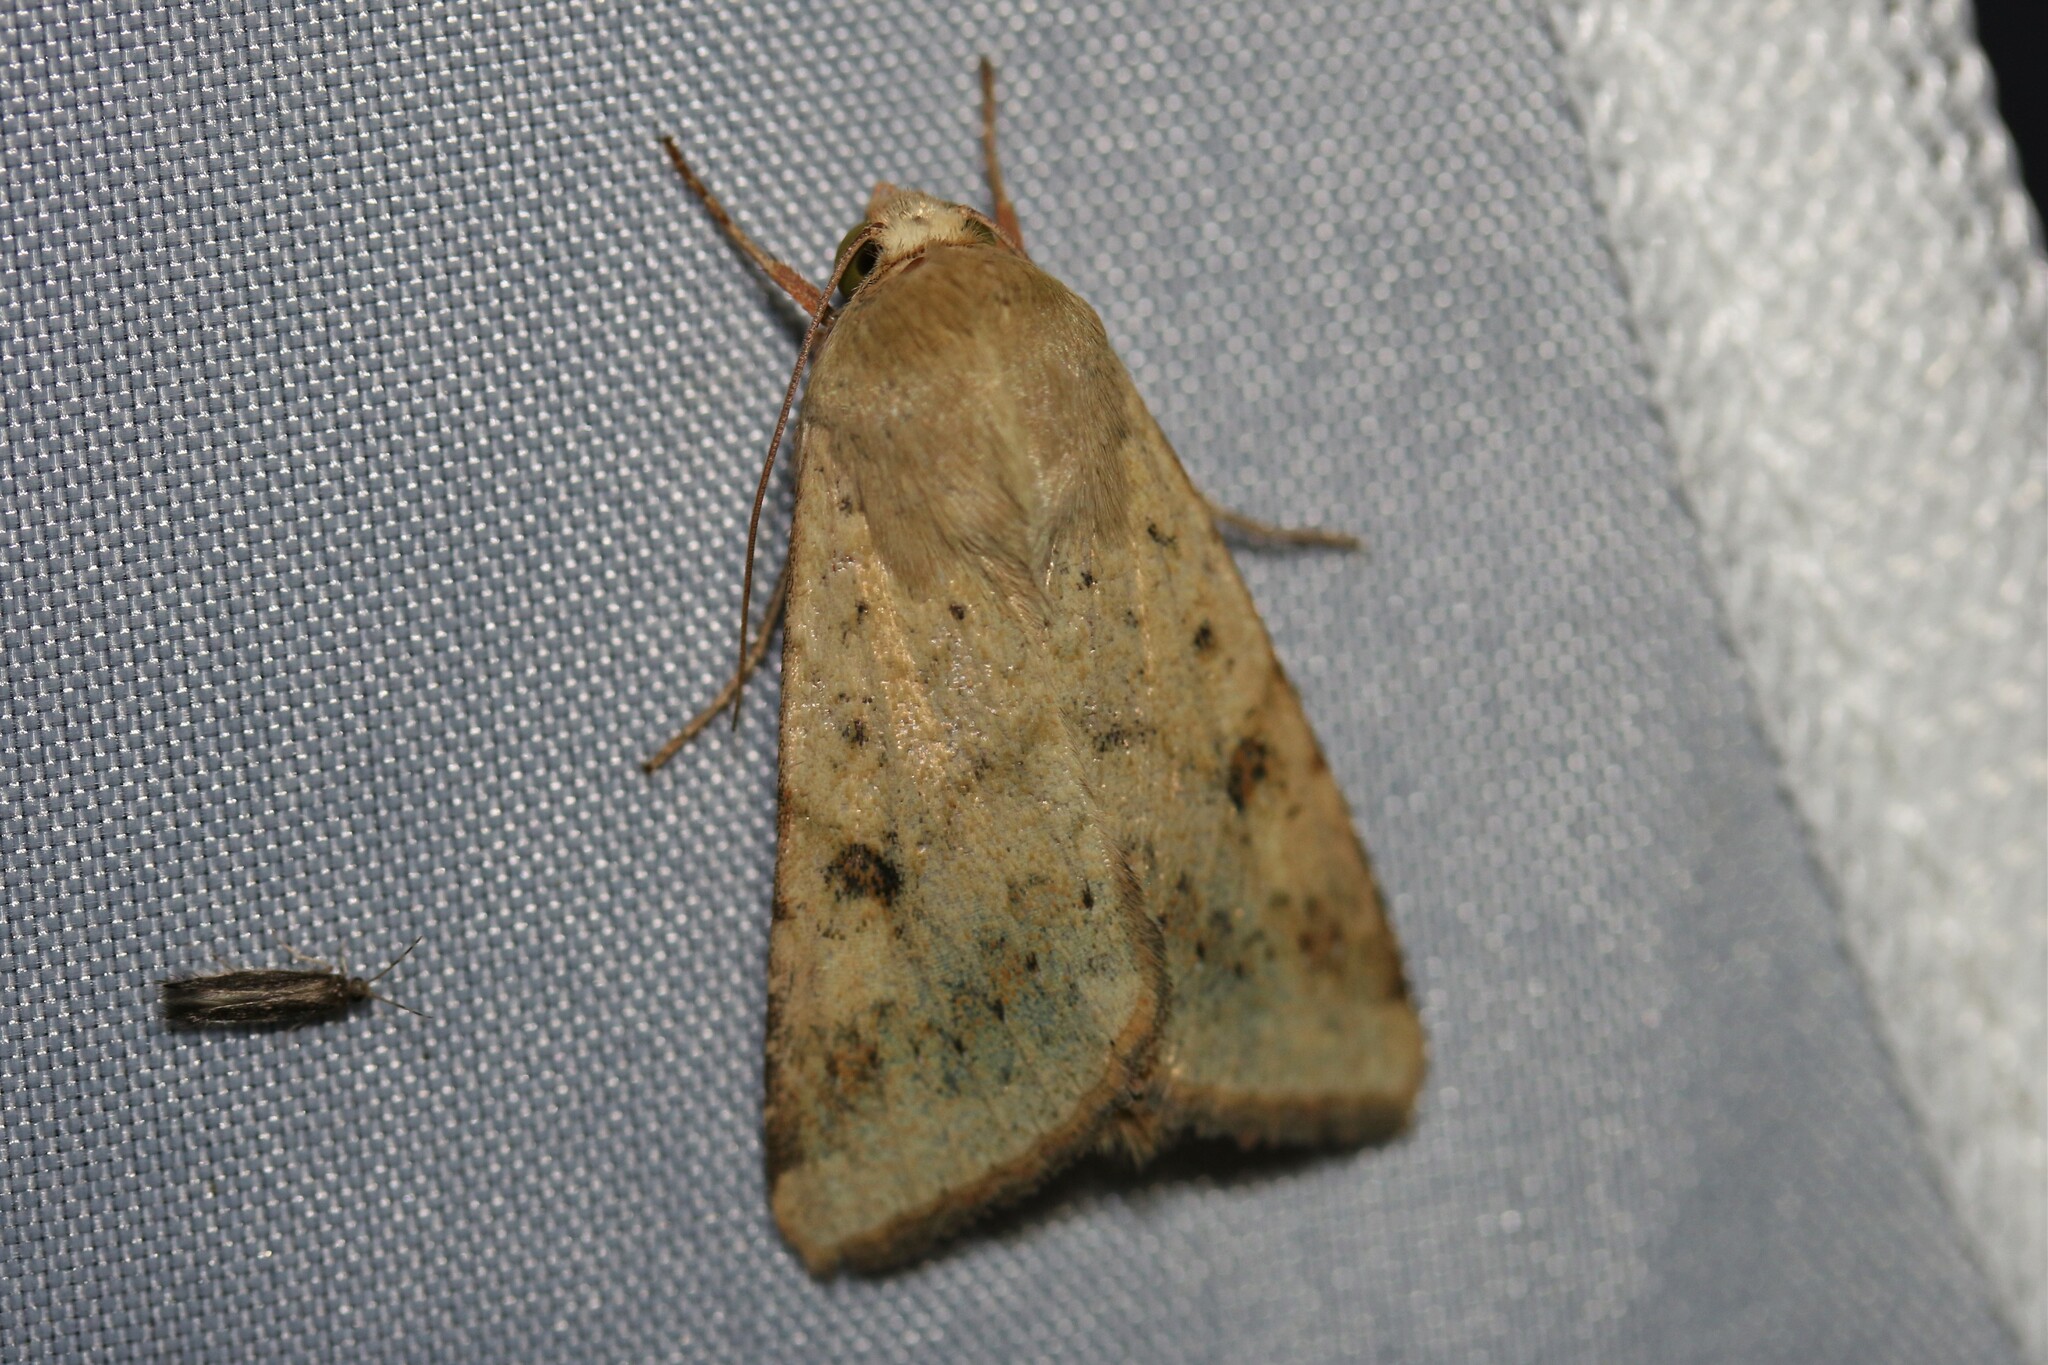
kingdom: Animalia
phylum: Arthropoda
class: Insecta
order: Lepidoptera
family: Noctuidae
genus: Helicoverpa
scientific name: Helicoverpa armigera
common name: Cotton bollworm
